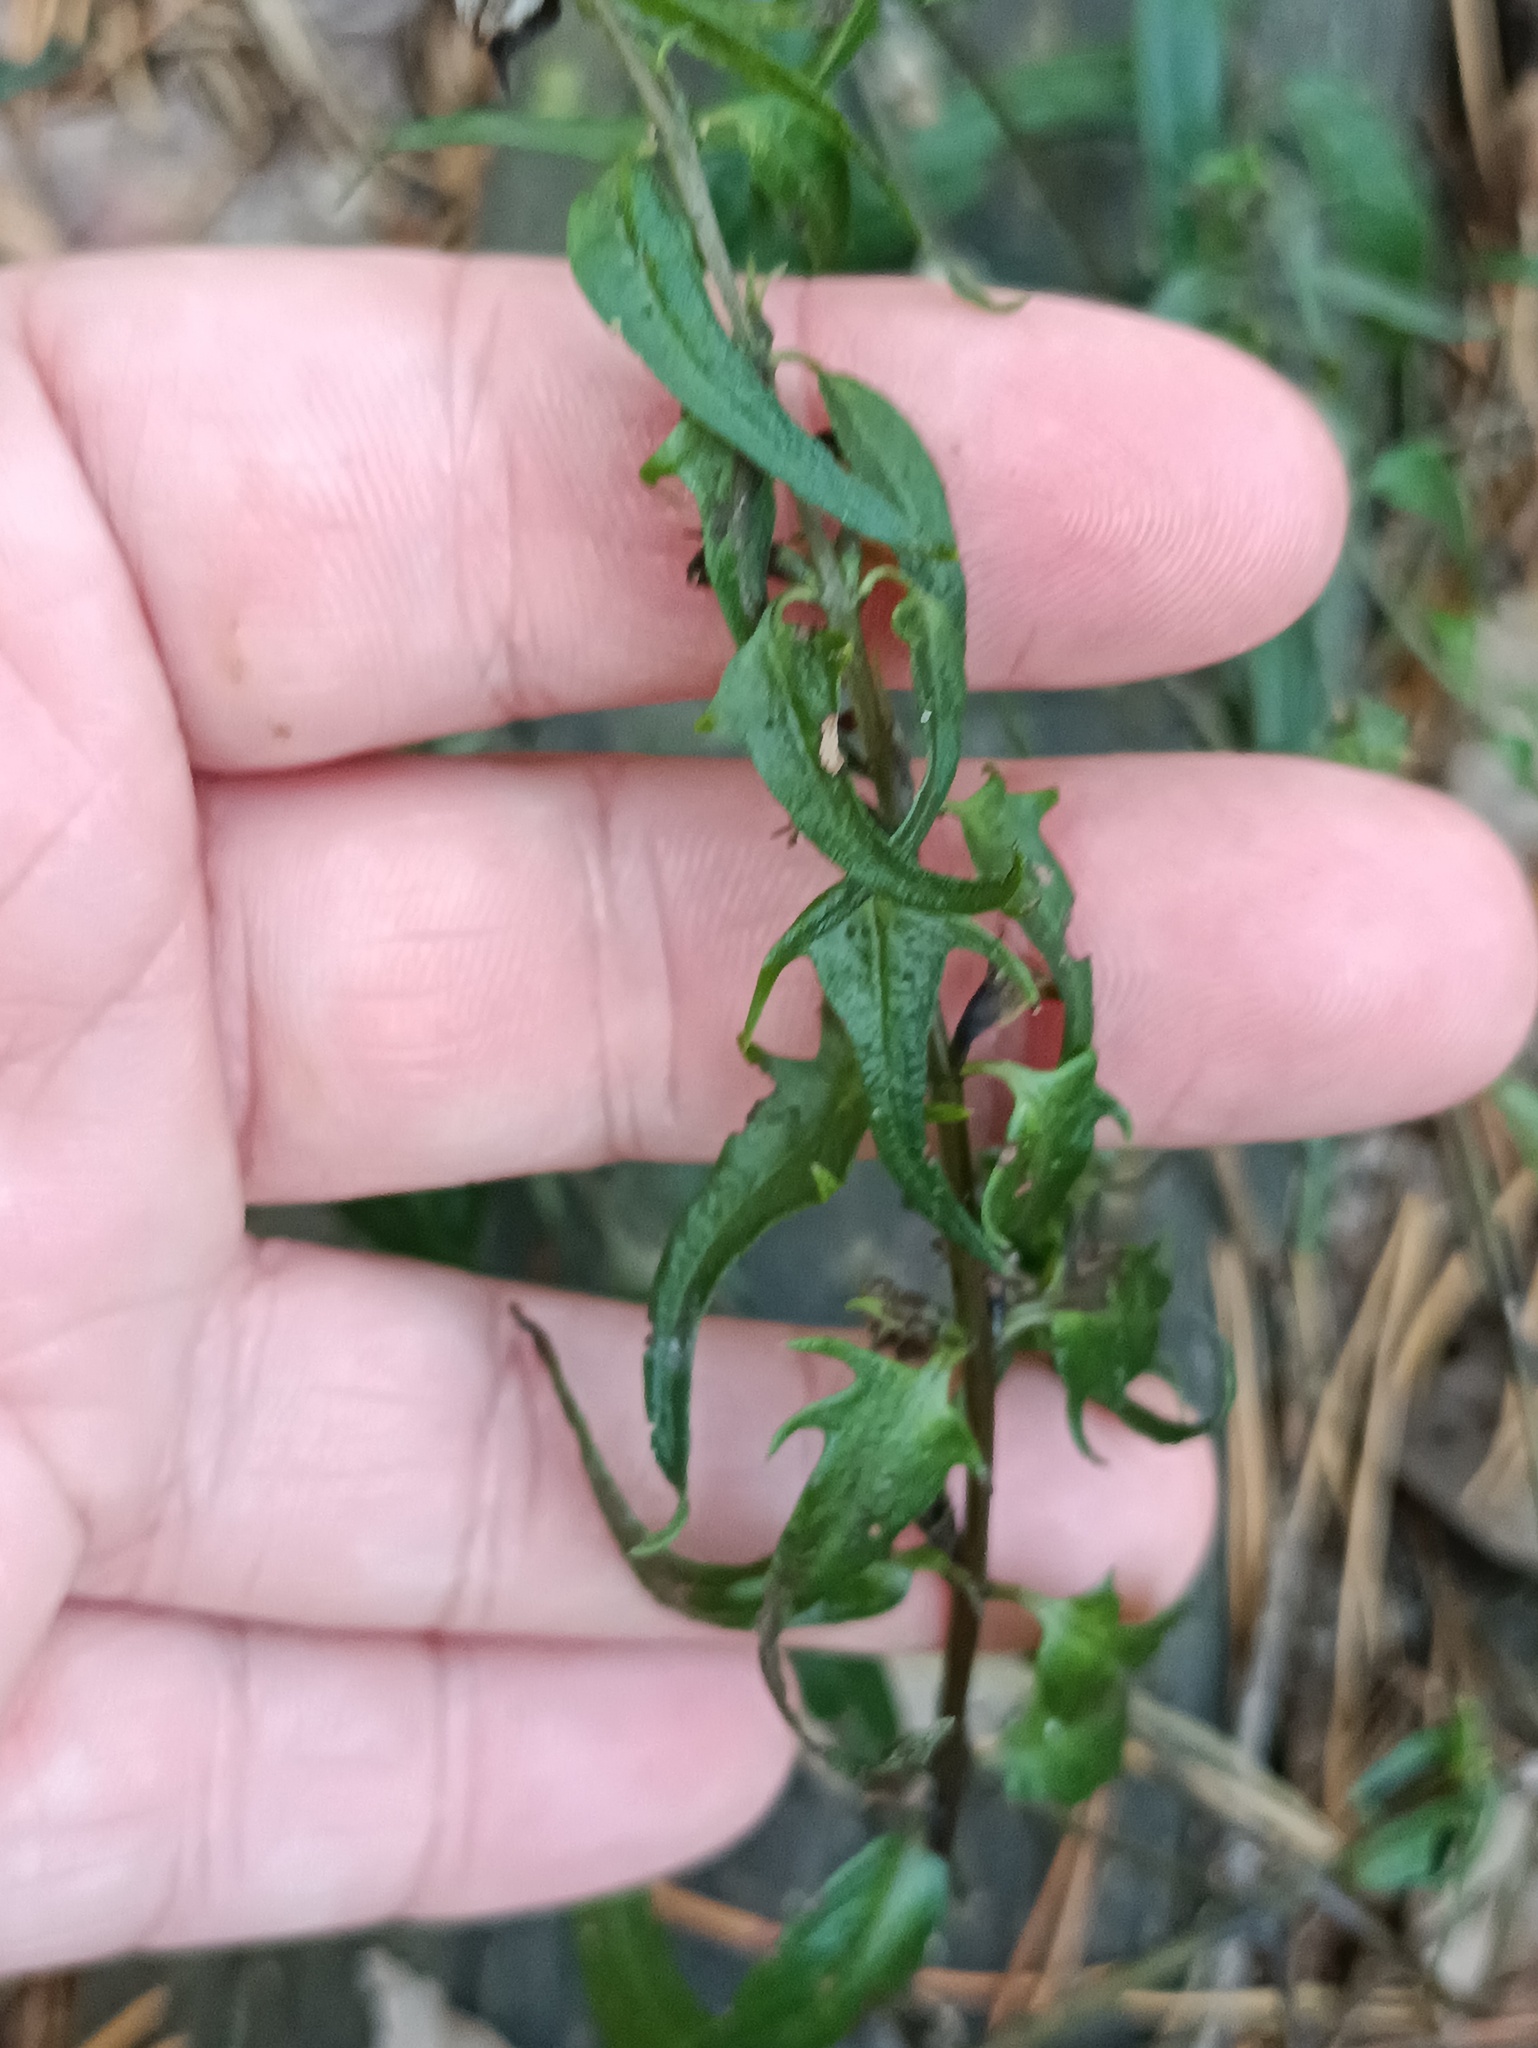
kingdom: Plantae
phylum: Tracheophyta
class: Magnoliopsida
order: Lamiales
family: Orobanchaceae
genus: Melampyrum
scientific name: Melampyrum pratense
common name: Common cow-wheat
